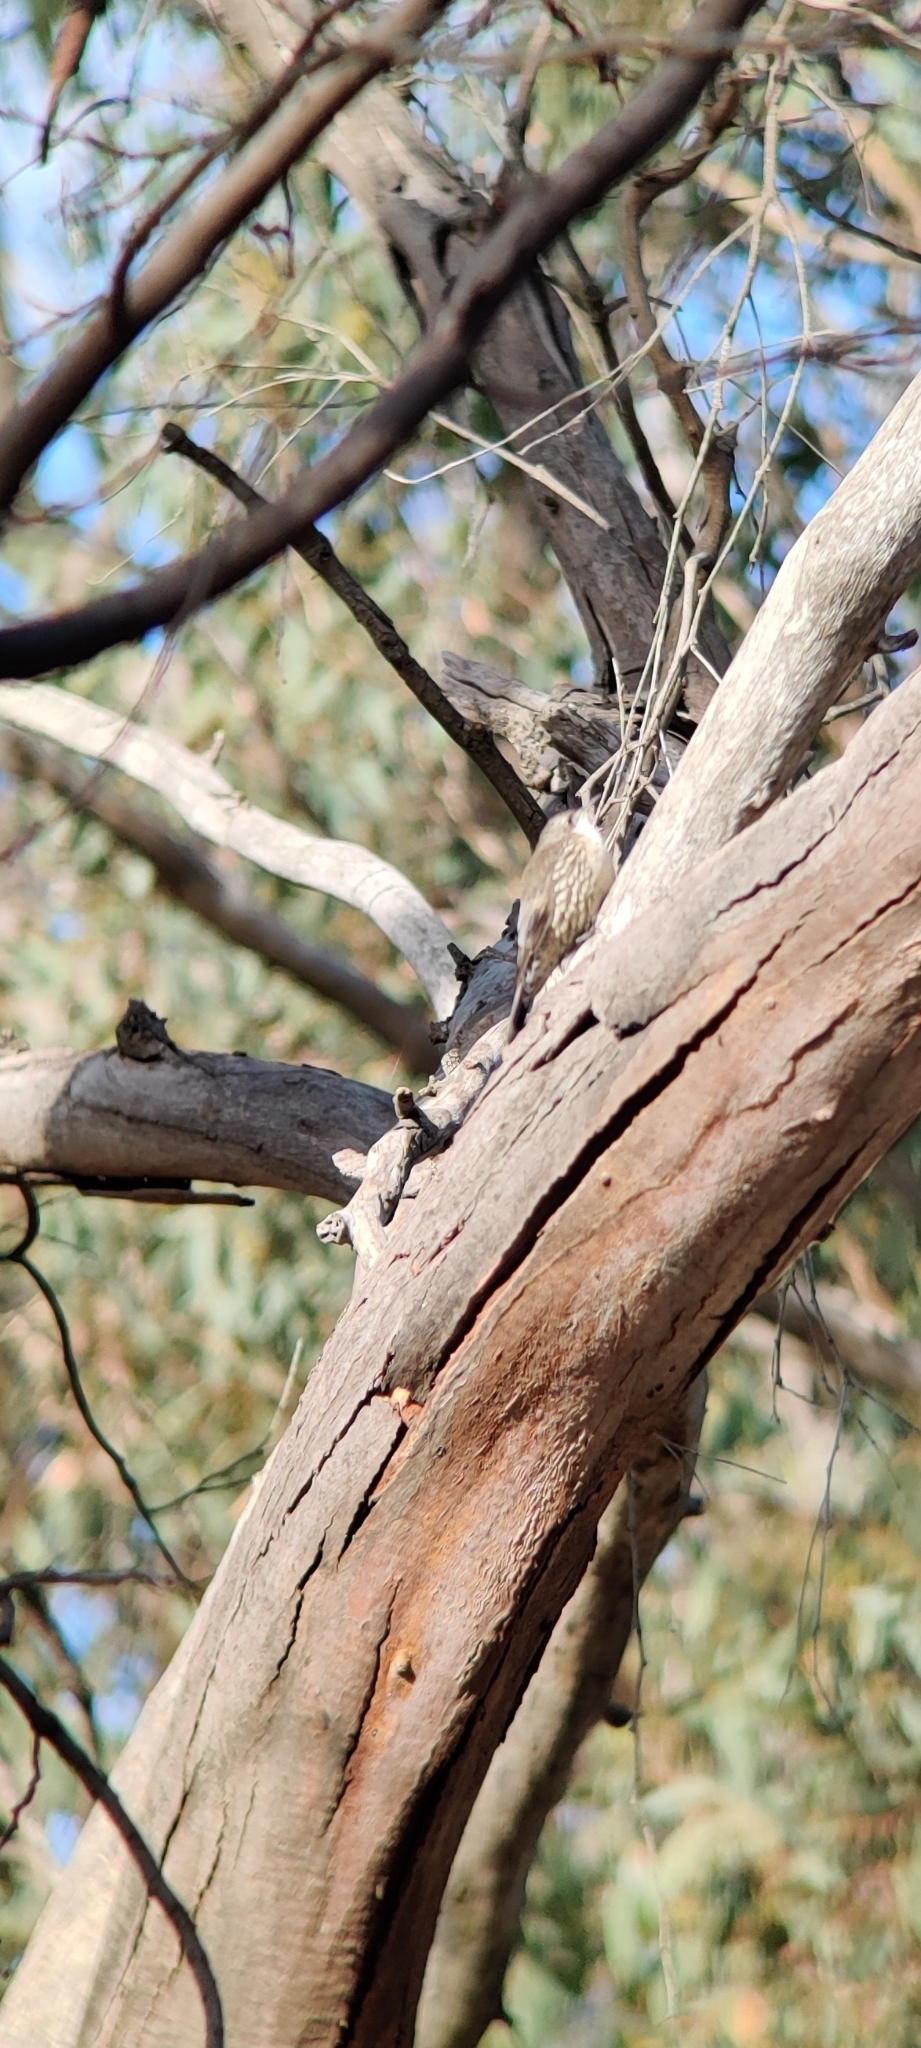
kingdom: Animalia
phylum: Chordata
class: Aves
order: Passeriformes
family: Climacteridae
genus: Cormobates
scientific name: Cormobates leucophaea
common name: White-throated treecreeper
